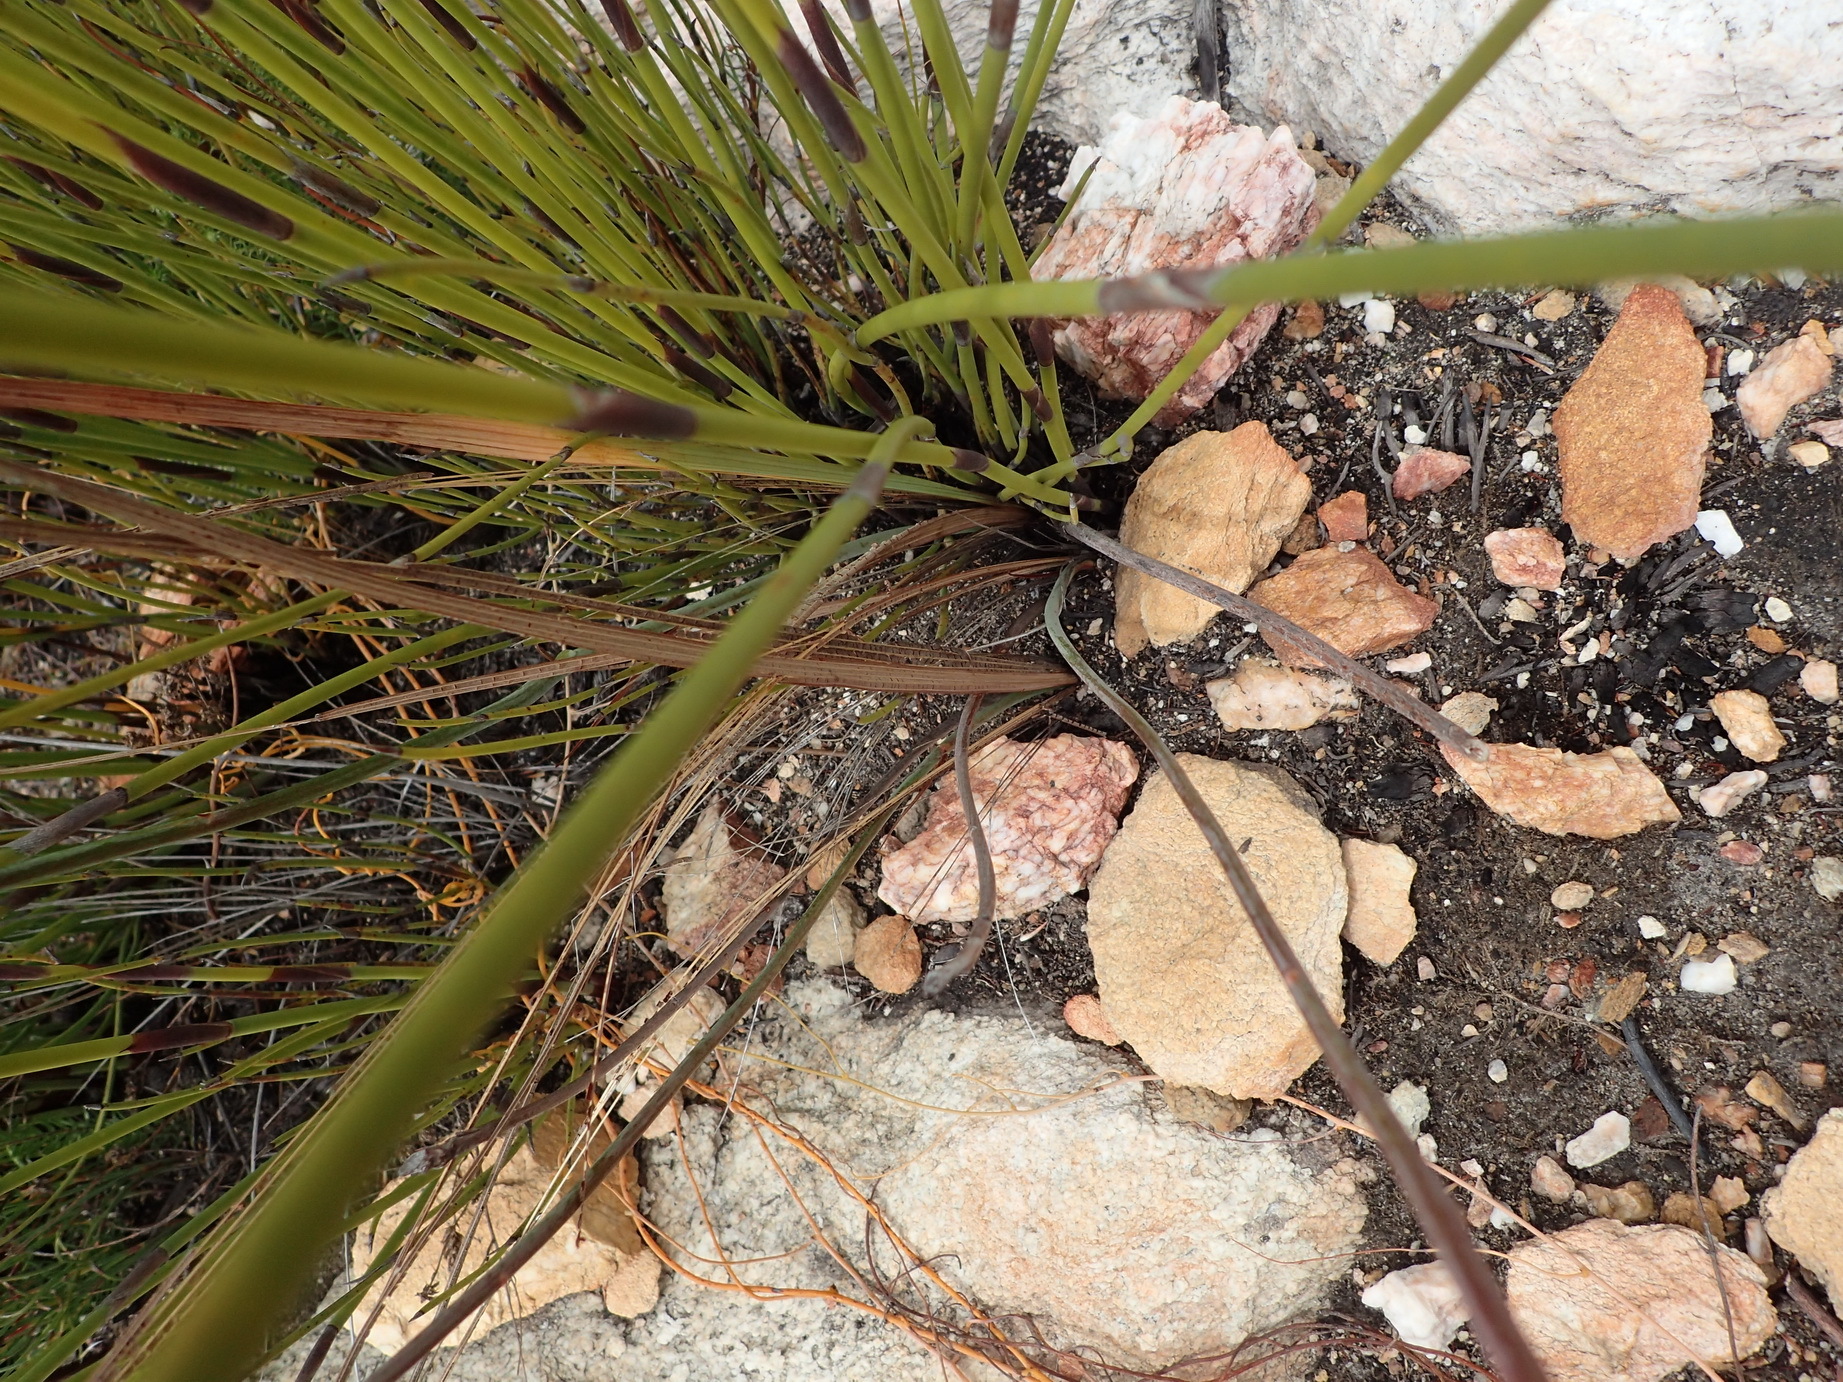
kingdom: Plantae
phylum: Tracheophyta
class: Liliopsida
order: Asparagales
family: Iridaceae
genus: Tritoniopsis
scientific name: Tritoniopsis antholyza
